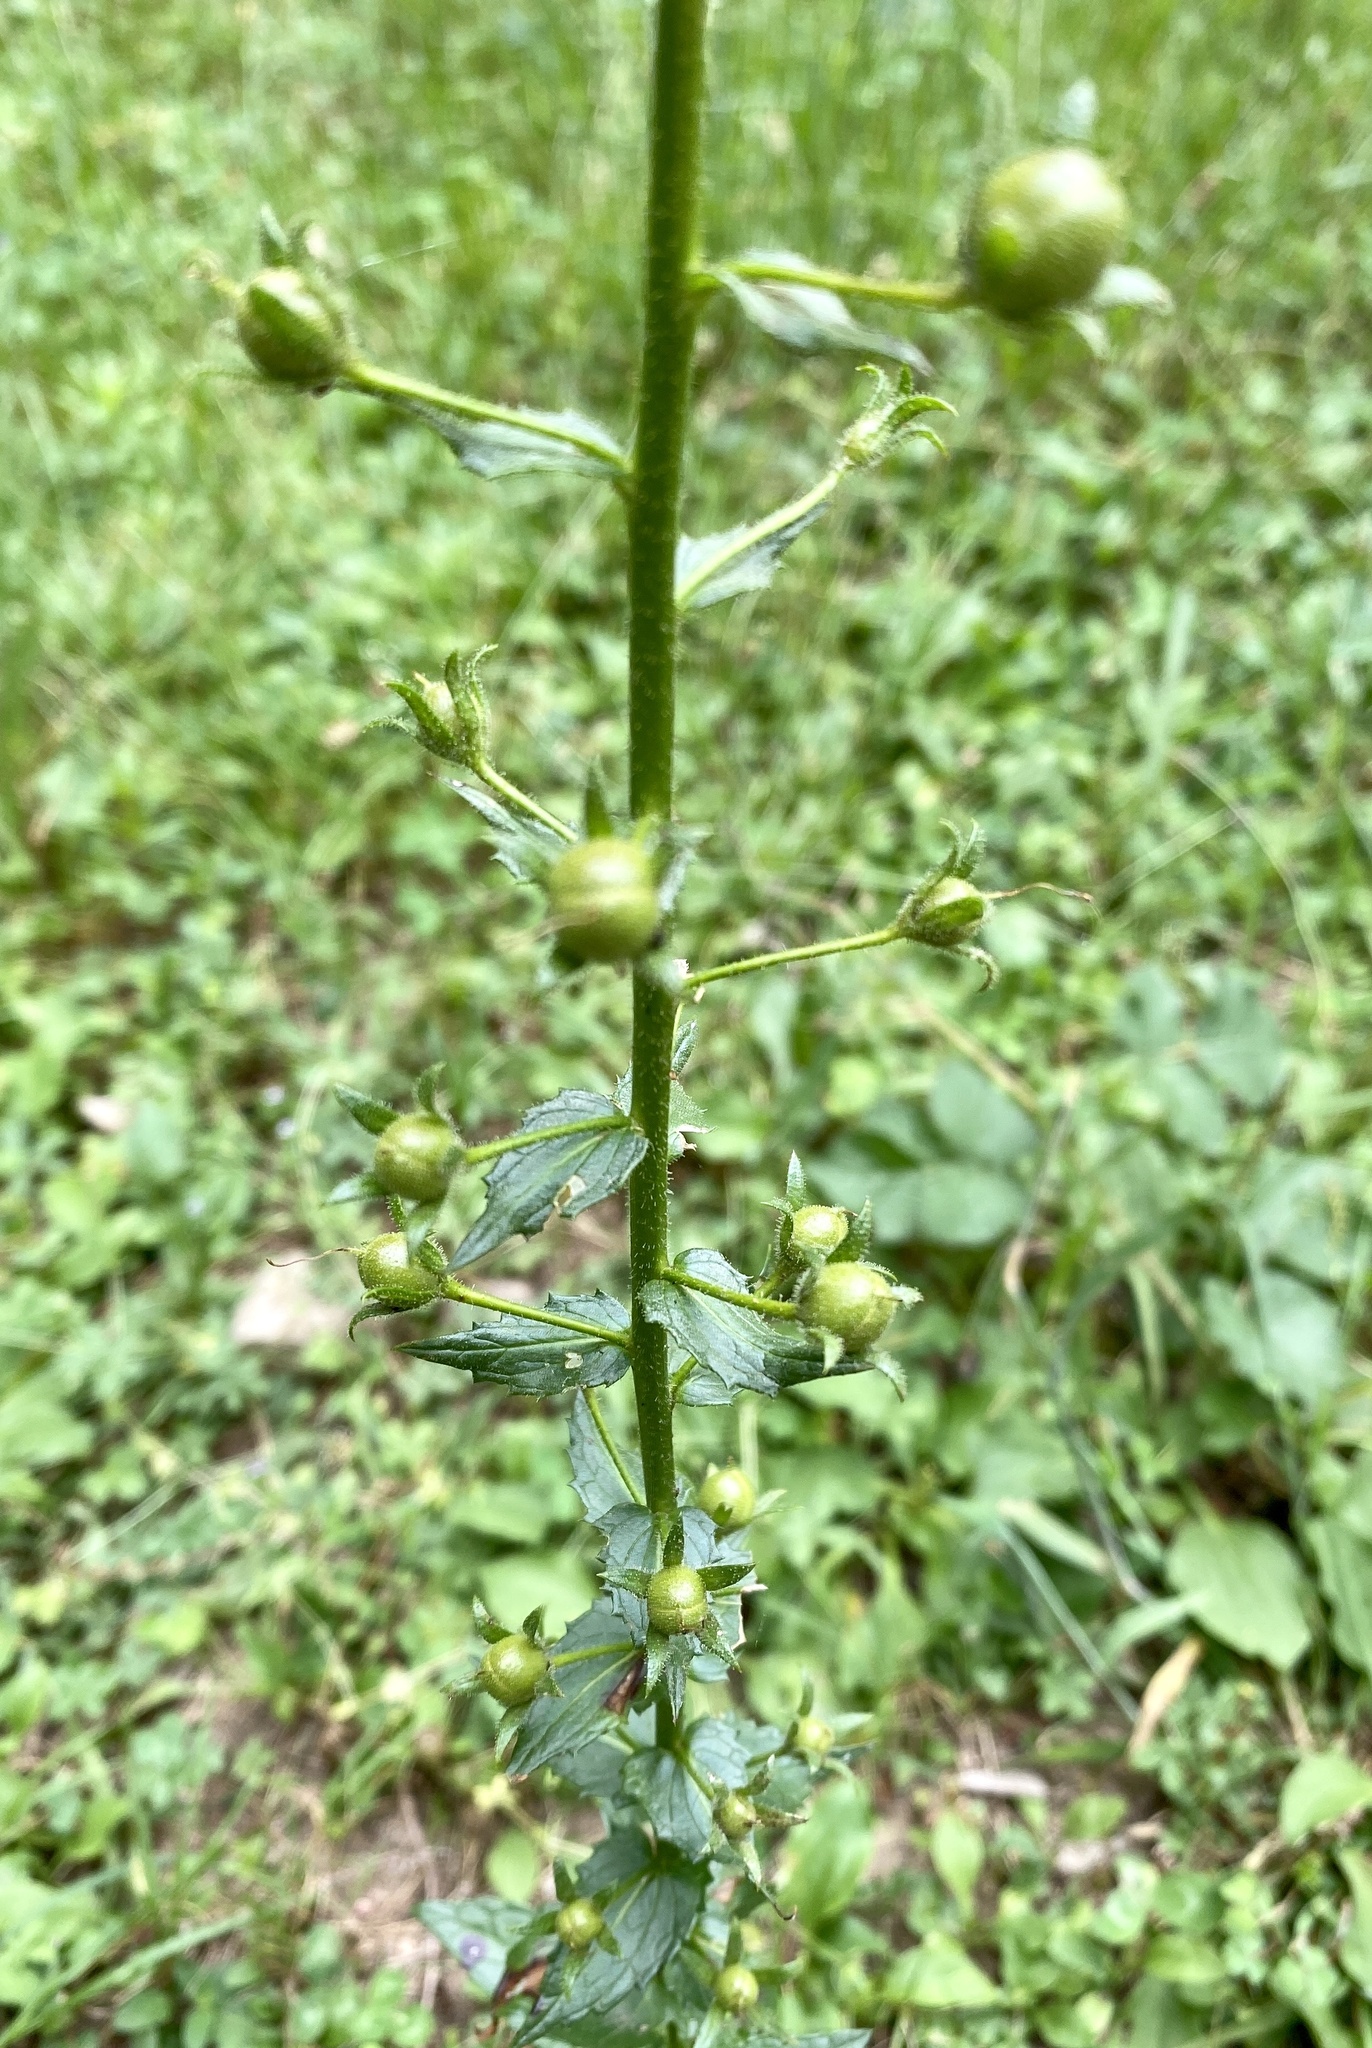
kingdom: Plantae
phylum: Tracheophyta
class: Magnoliopsida
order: Lamiales
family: Scrophulariaceae
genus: Verbascum
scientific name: Verbascum blattaria
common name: Moth mullein
